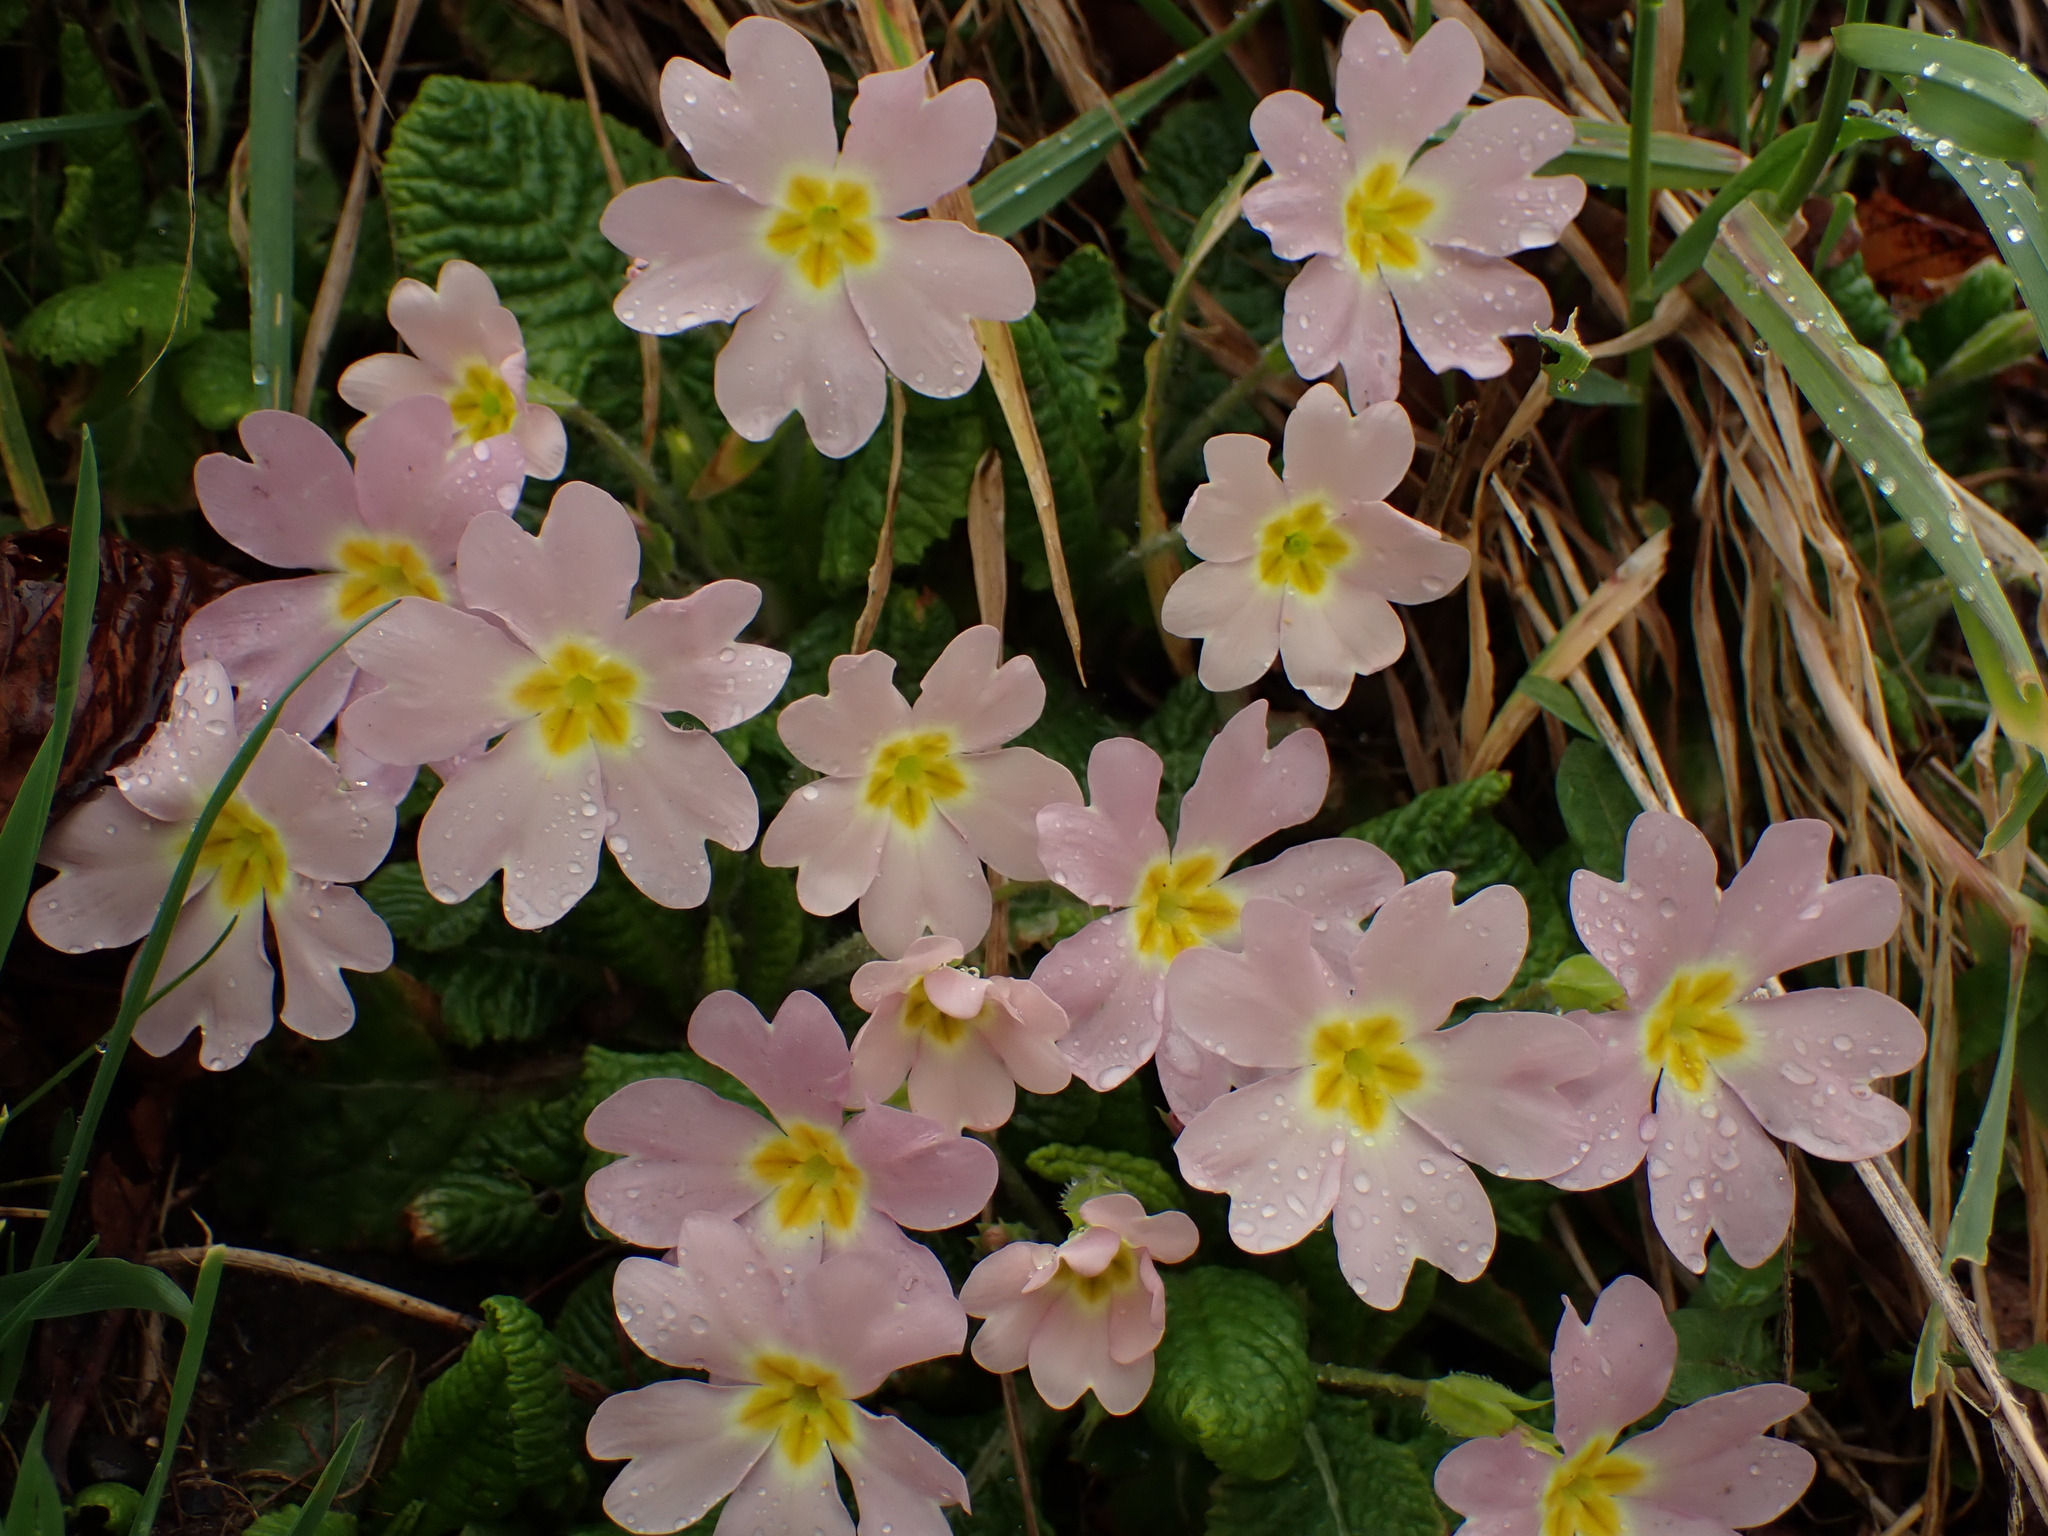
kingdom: Plantae
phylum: Tracheophyta
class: Magnoliopsida
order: Ericales
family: Primulaceae
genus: Primula
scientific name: Primula vulgaris
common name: Primrose
